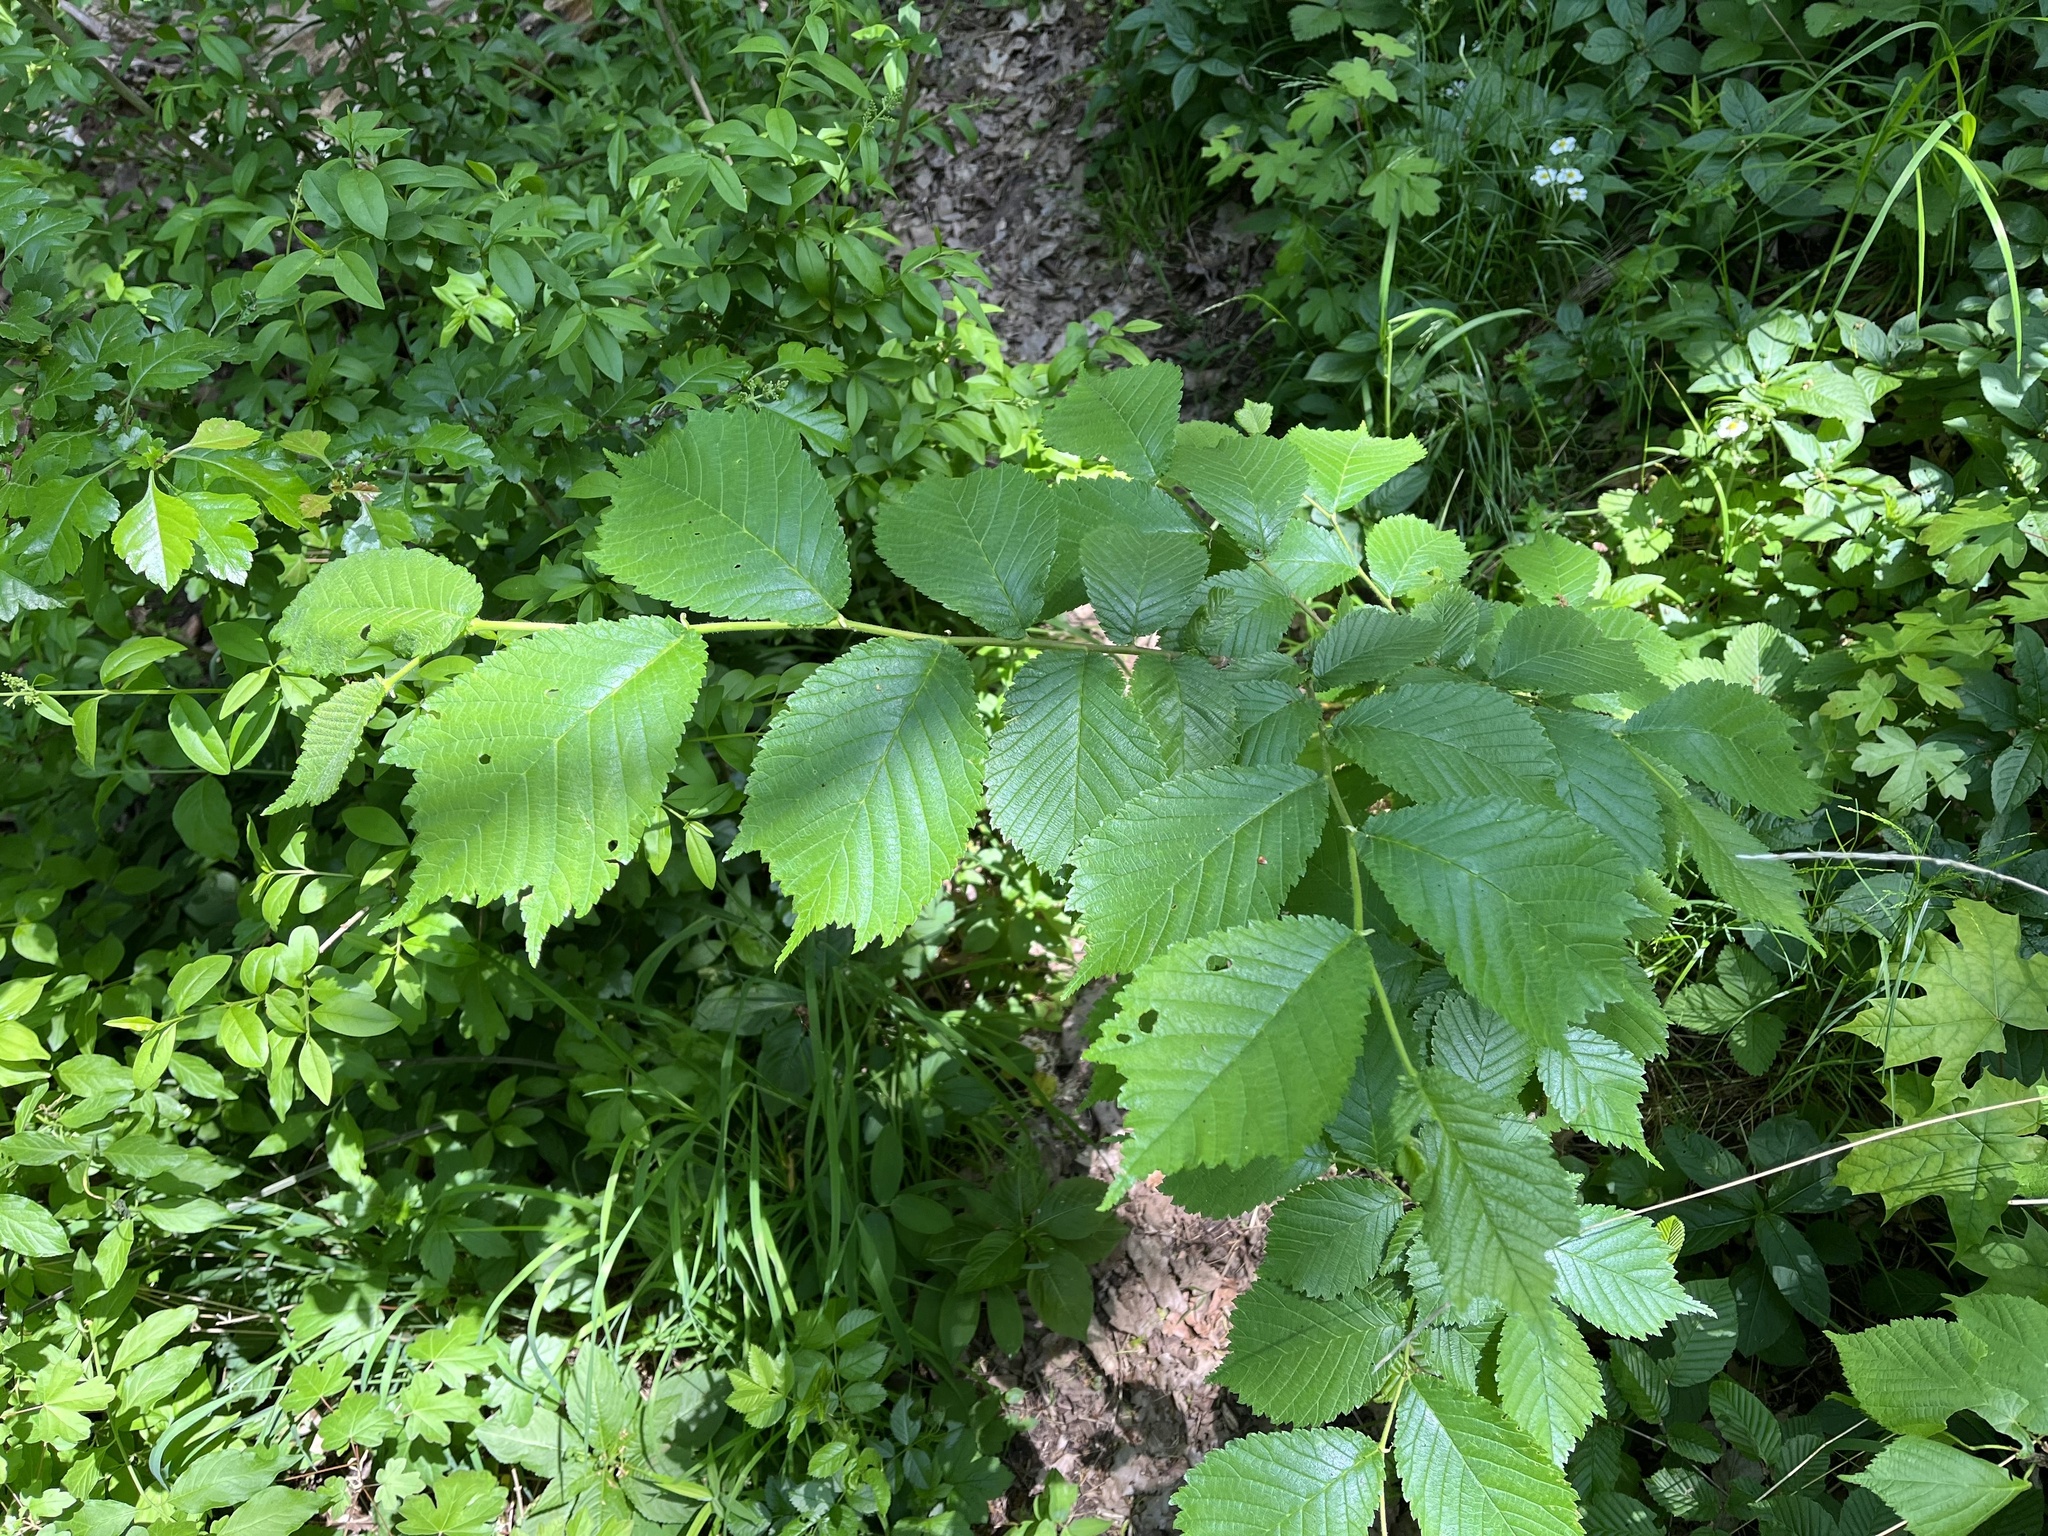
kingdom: Plantae
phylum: Tracheophyta
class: Magnoliopsida
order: Rosales
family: Ulmaceae
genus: Ulmus
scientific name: Ulmus glabra
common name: Wych elm
